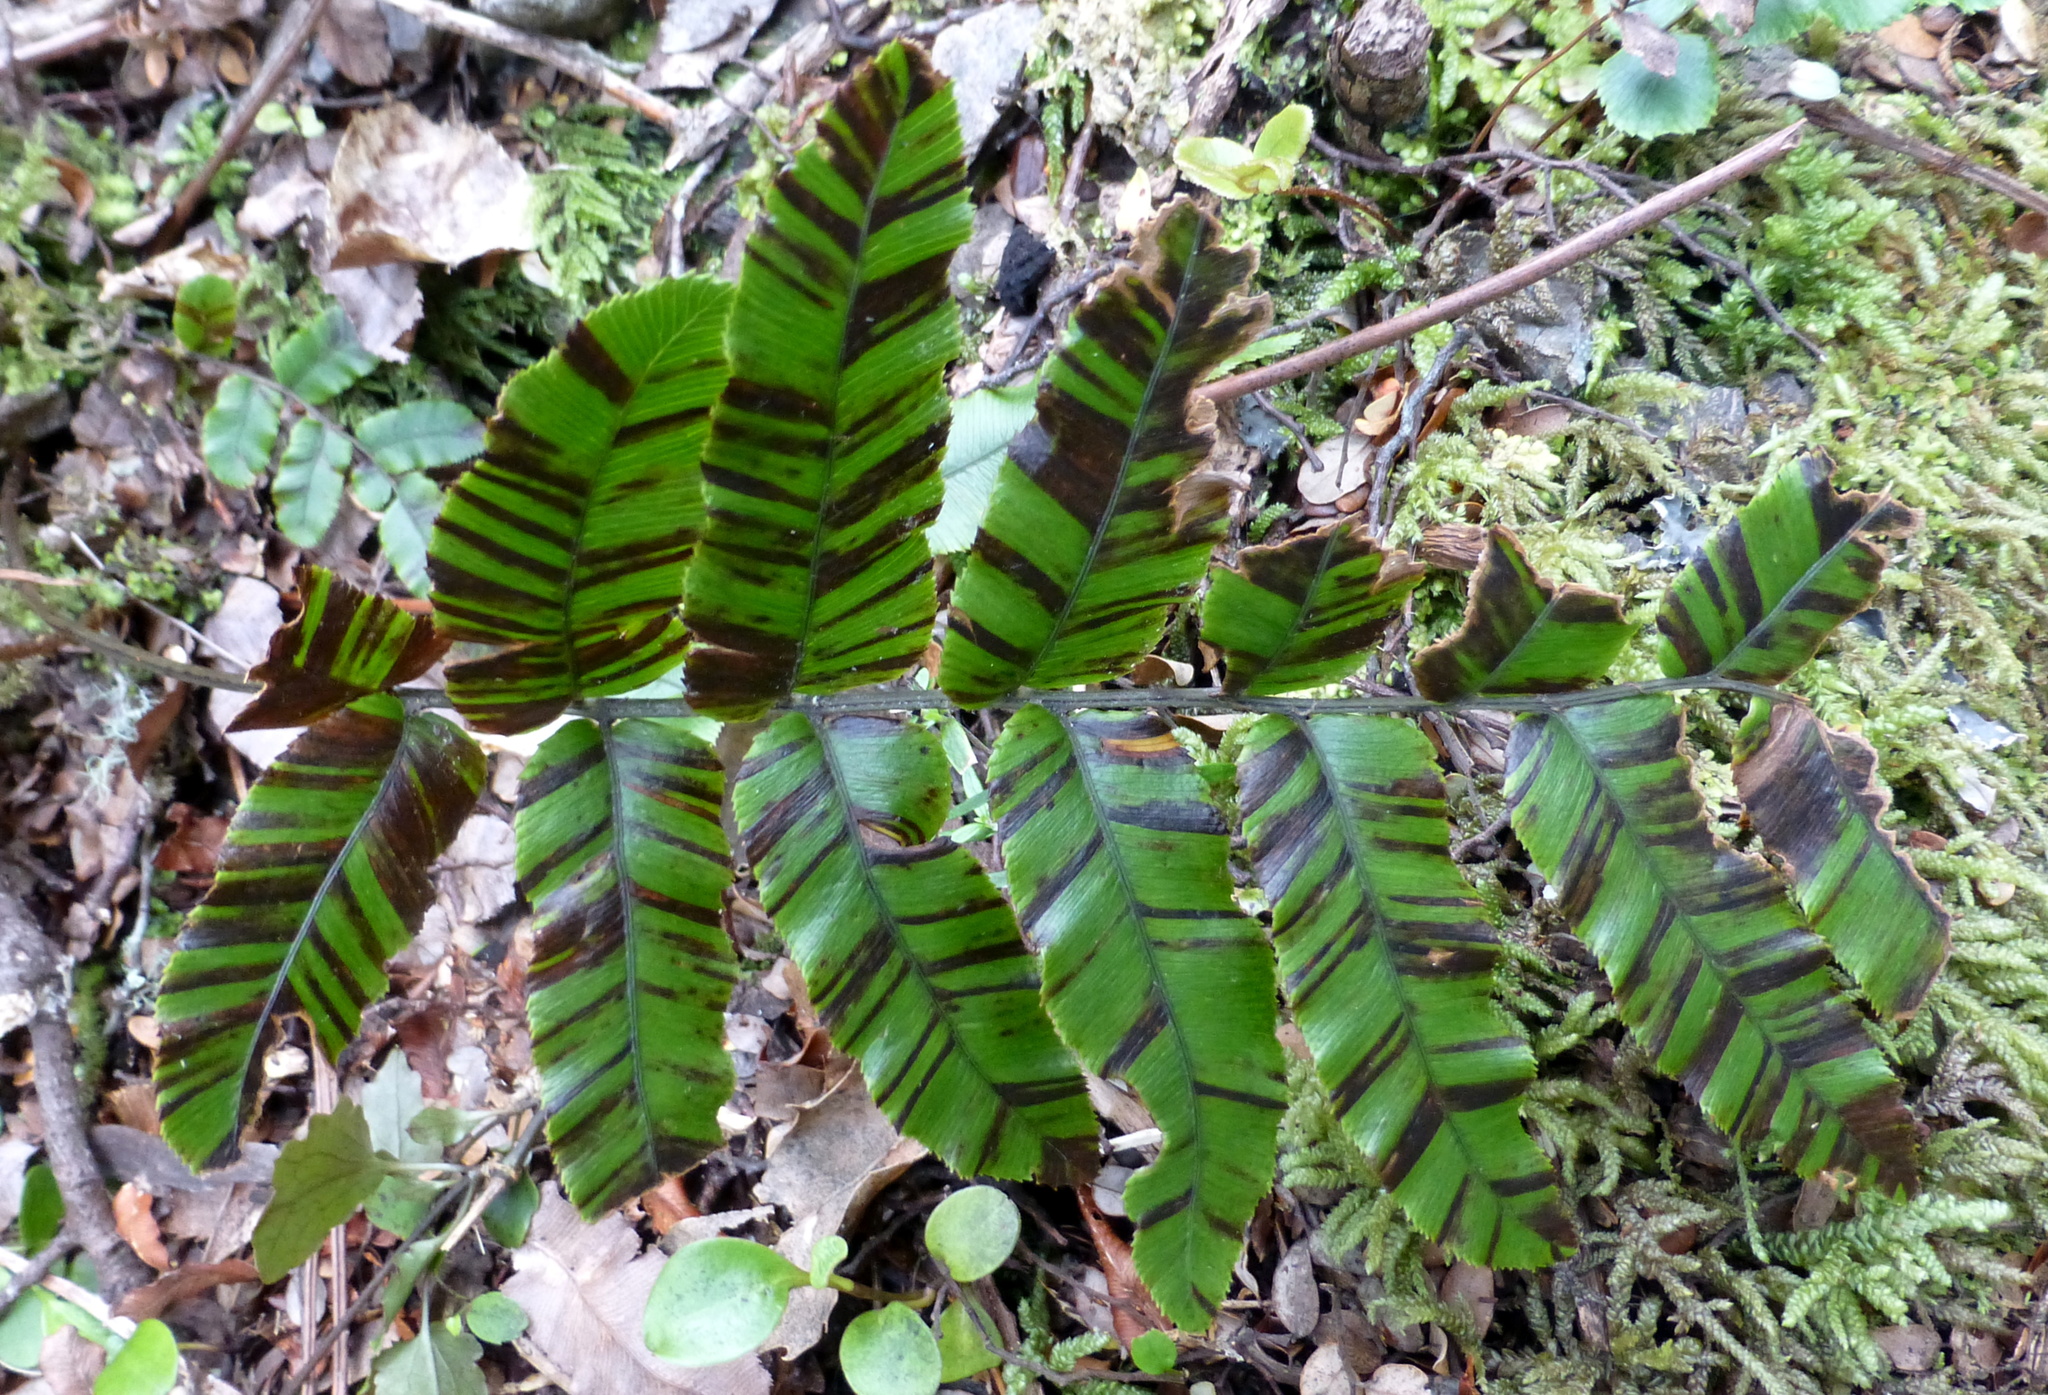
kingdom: Plantae
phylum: Tracheophyta
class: Polypodiopsida
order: Polypodiales
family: Blechnaceae
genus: Parablechnum
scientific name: Parablechnum procerum
